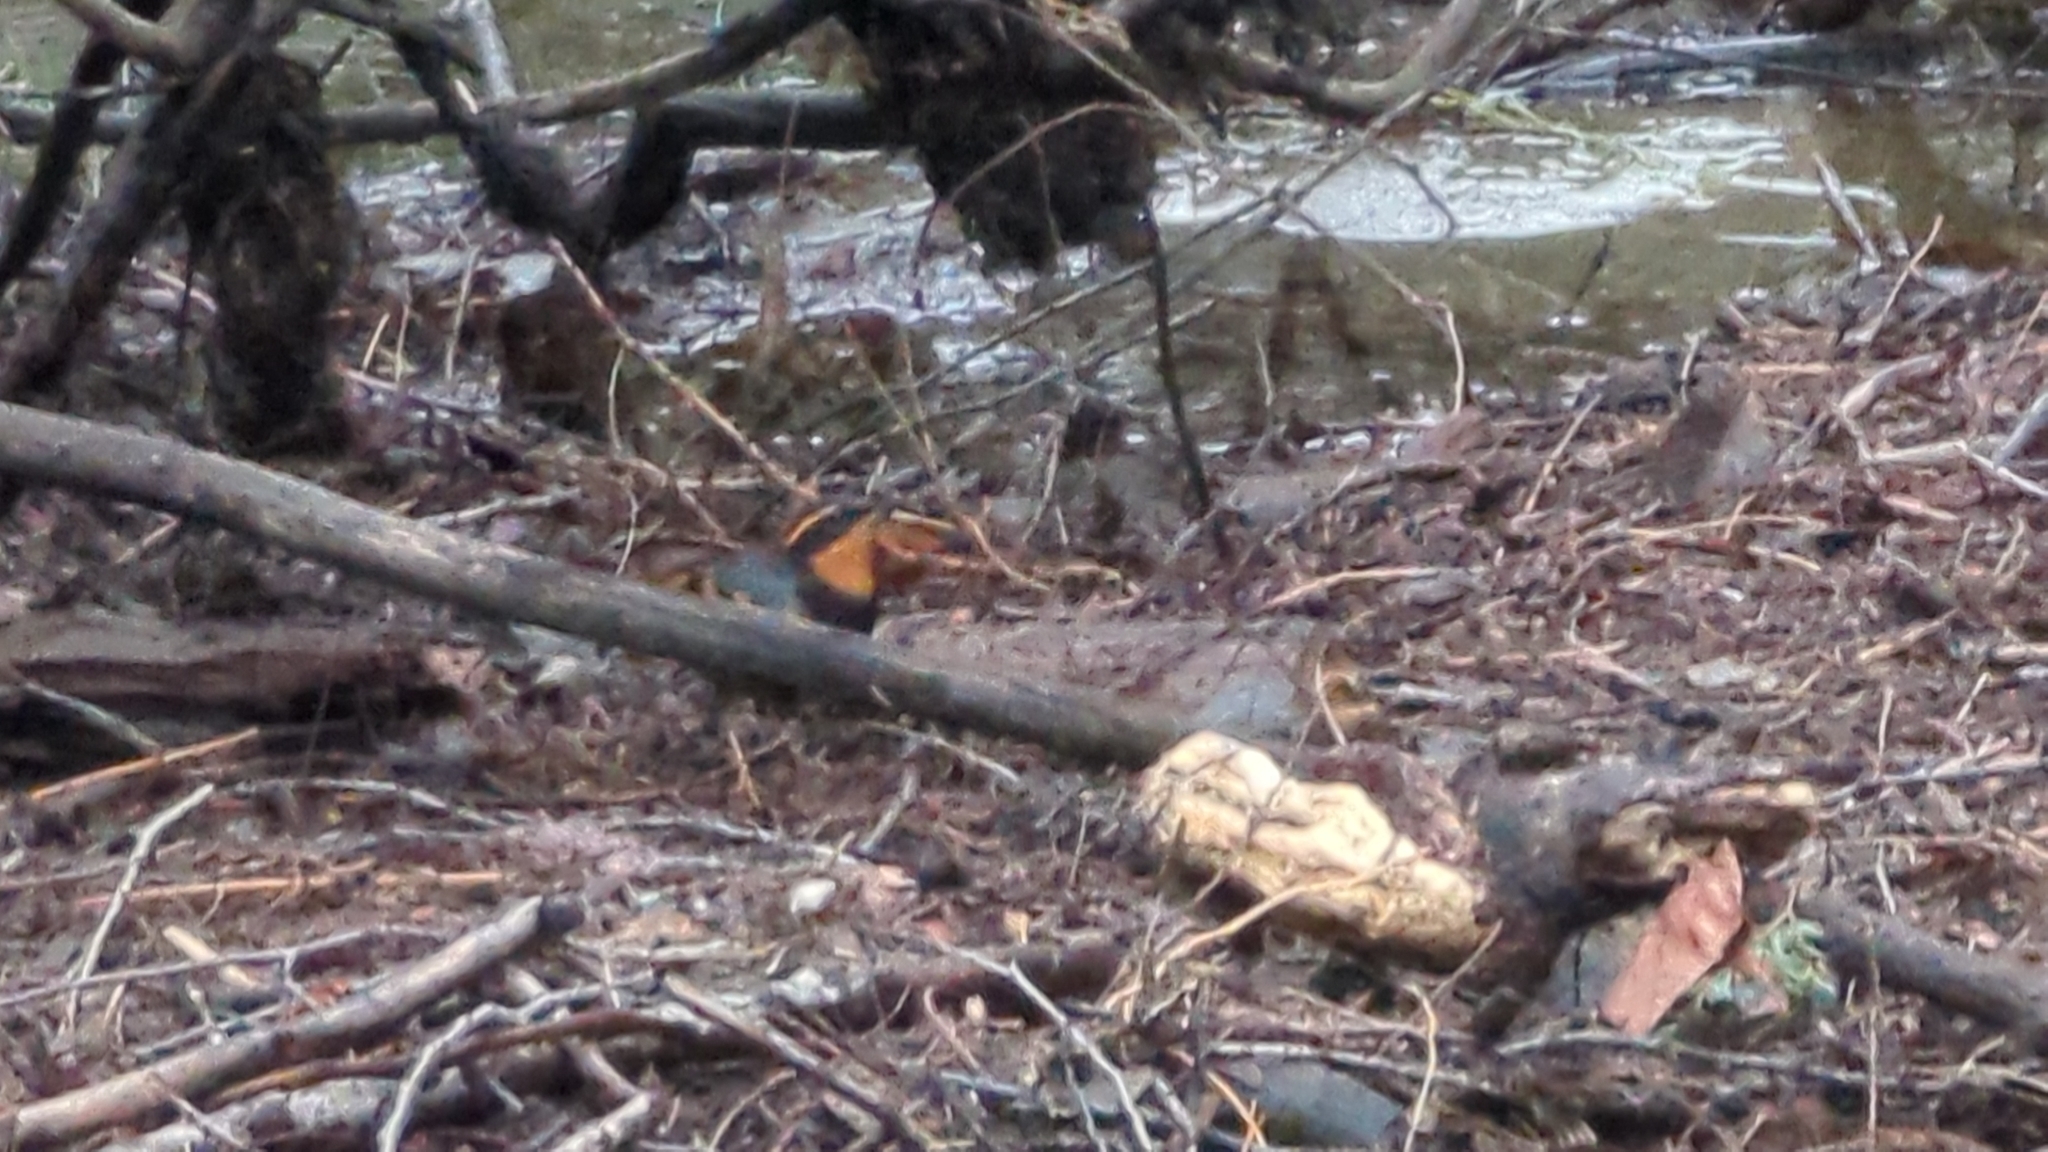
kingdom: Animalia
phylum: Chordata
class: Aves
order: Passeriformes
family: Turdidae
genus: Ixoreus
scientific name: Ixoreus naevius
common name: Varied thrush
